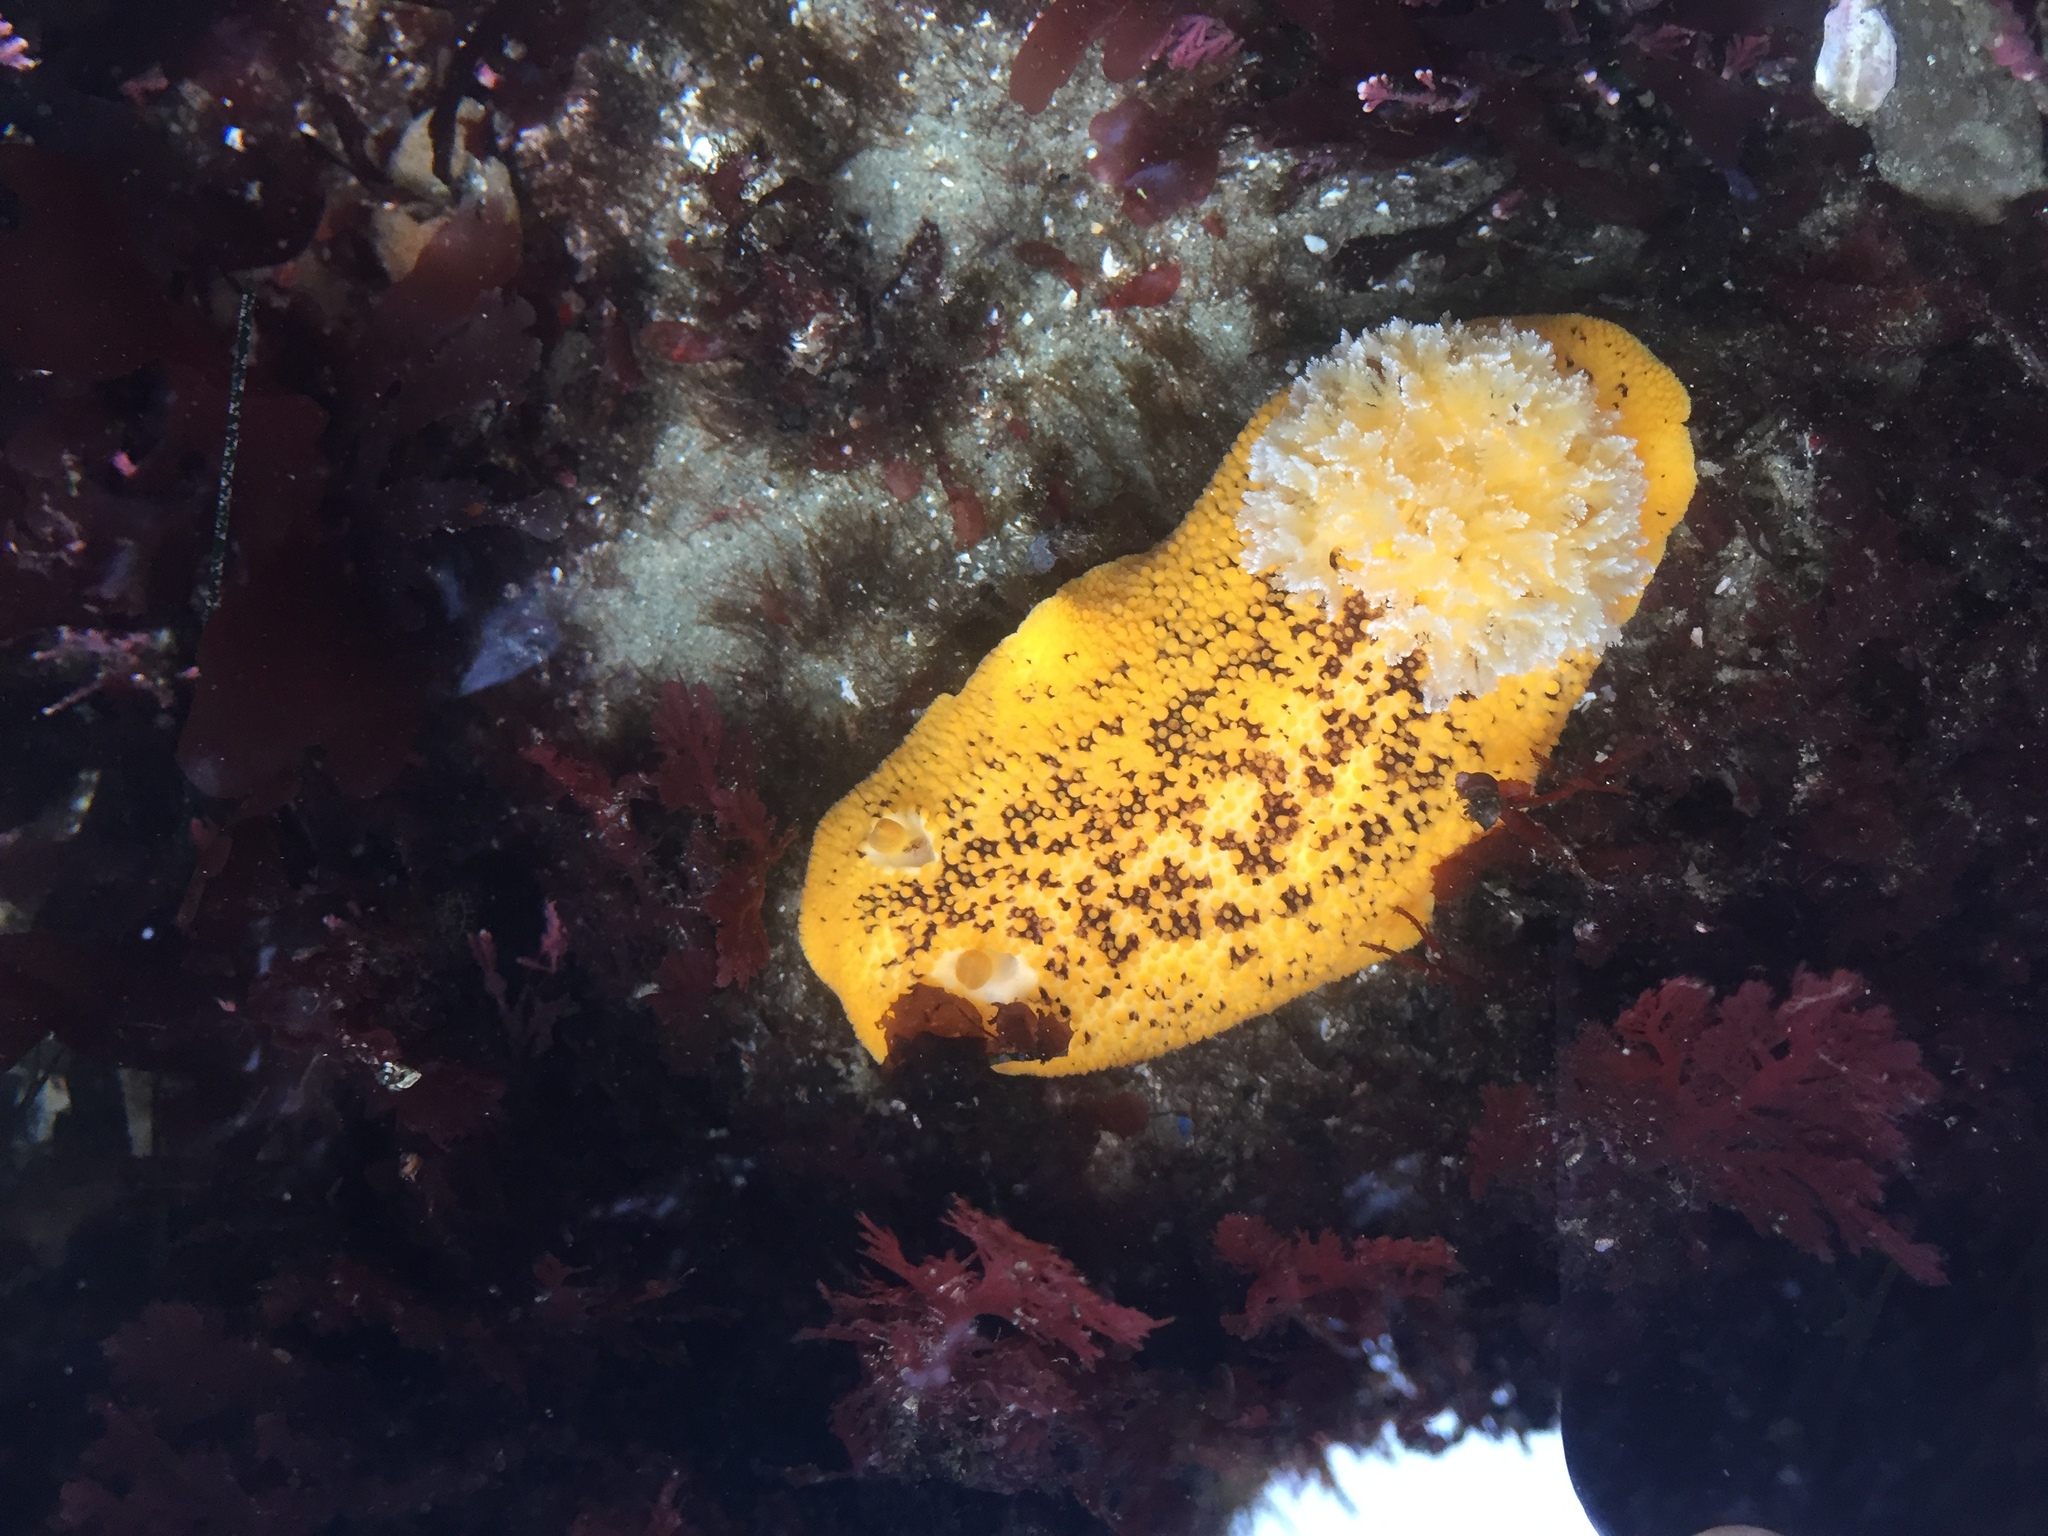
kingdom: Animalia
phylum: Mollusca
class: Gastropoda
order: Nudibranchia
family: Discodorididae
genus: Peltodoris
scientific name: Peltodoris nobilis
